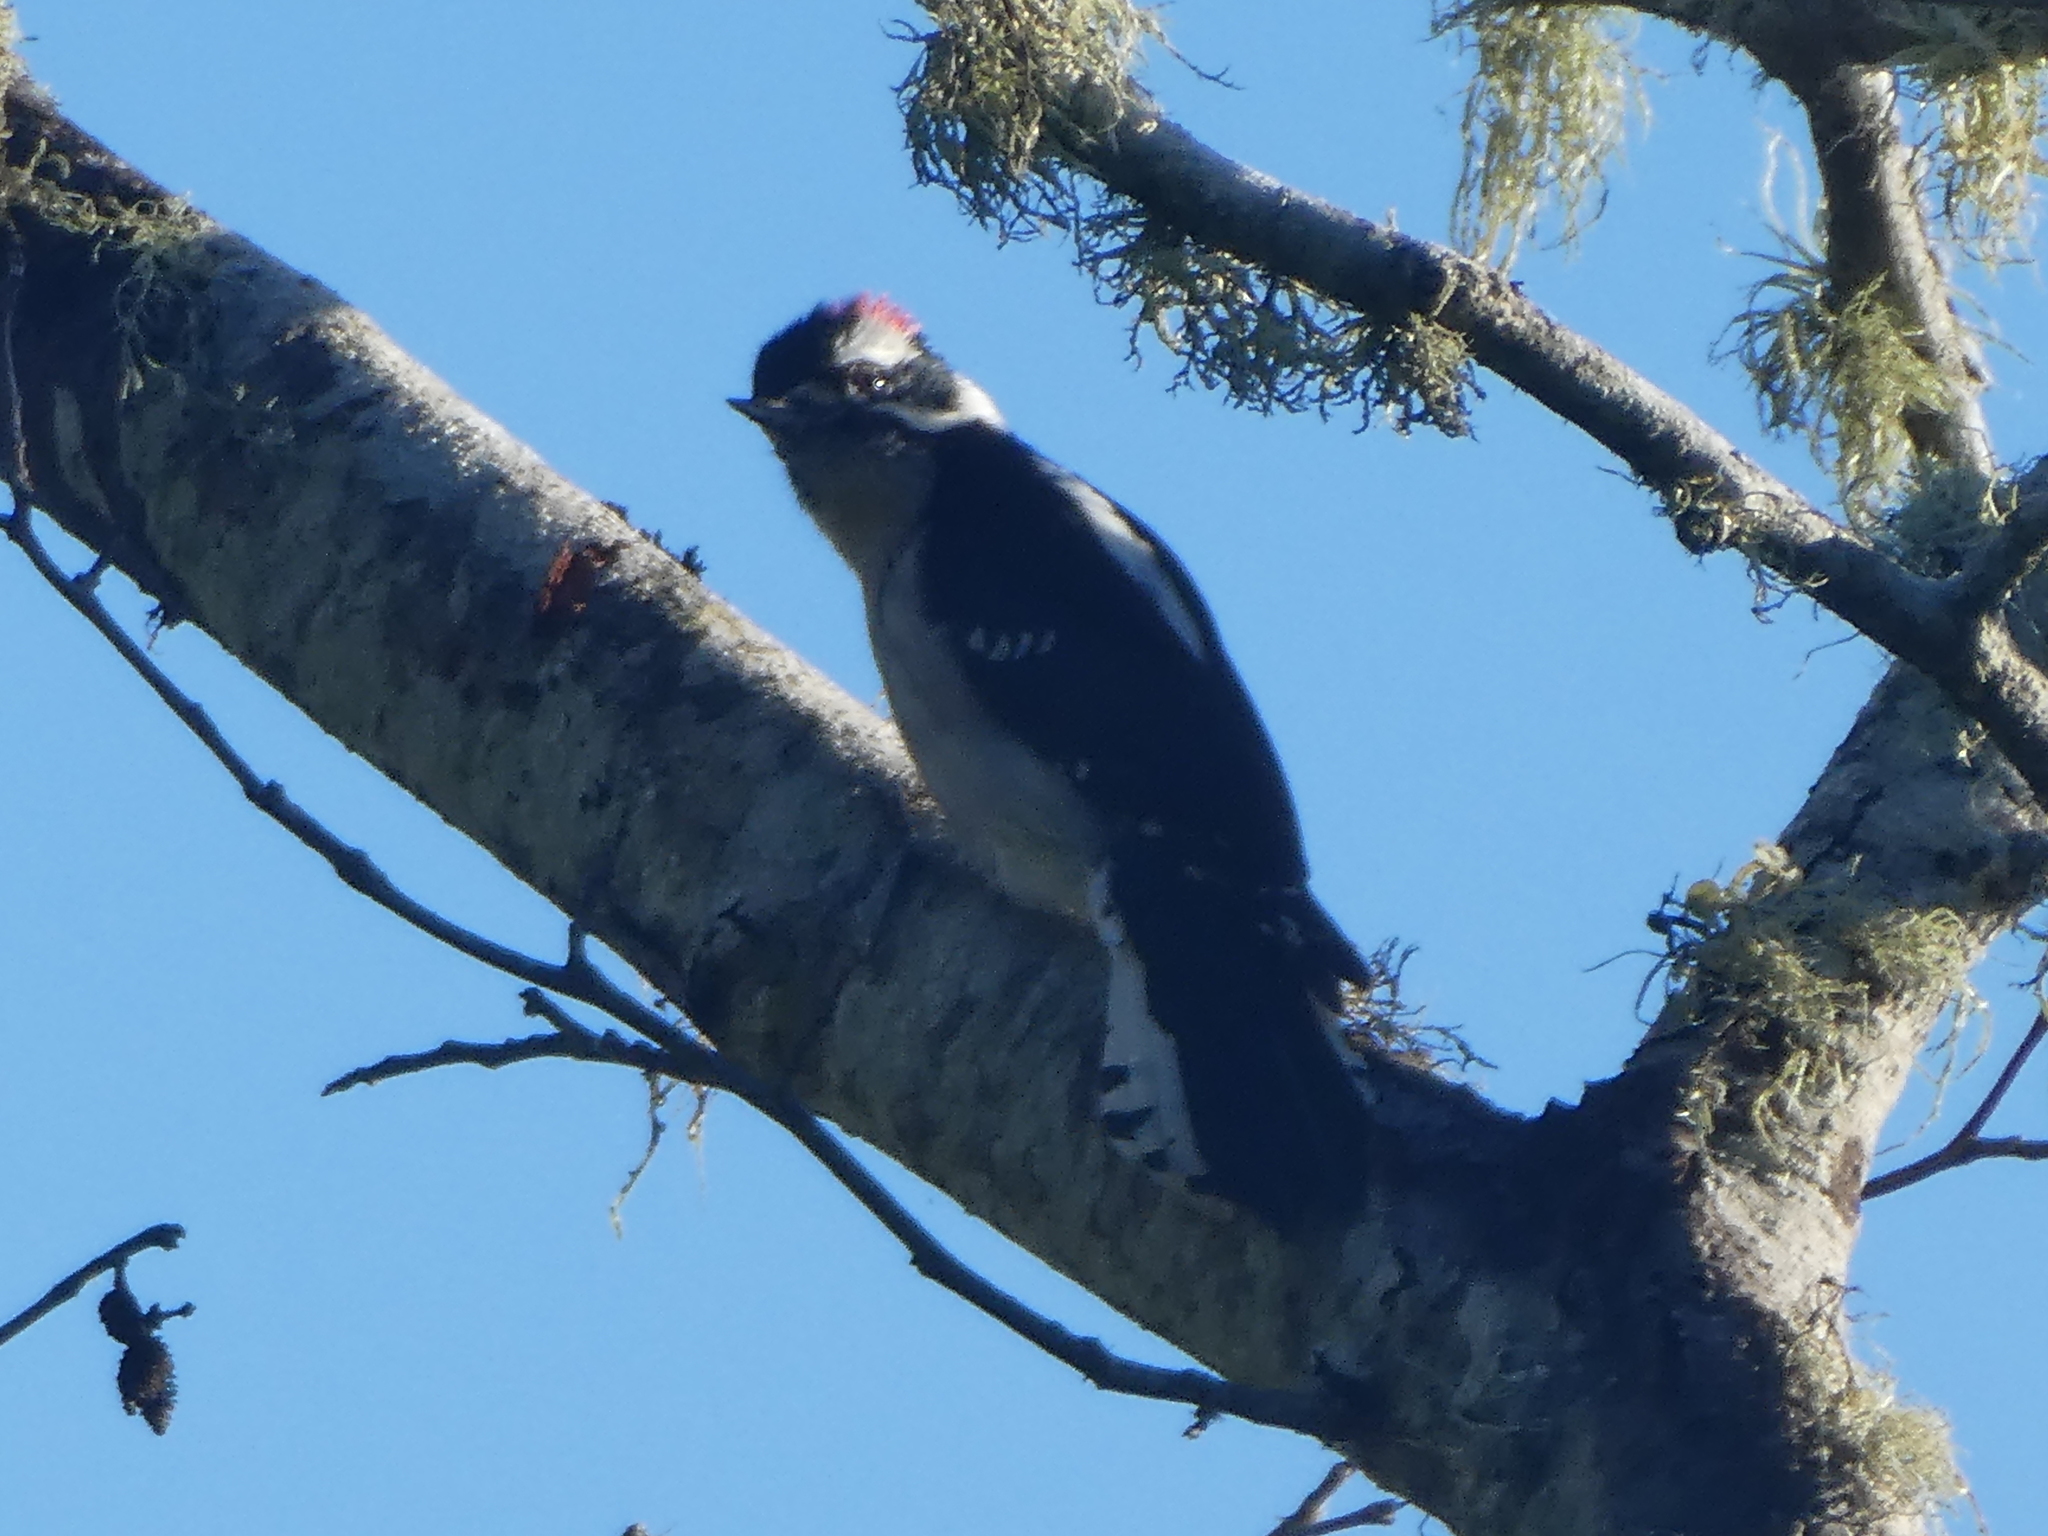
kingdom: Animalia
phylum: Chordata
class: Aves
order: Piciformes
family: Picidae
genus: Dryobates
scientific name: Dryobates pubescens
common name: Downy woodpecker
